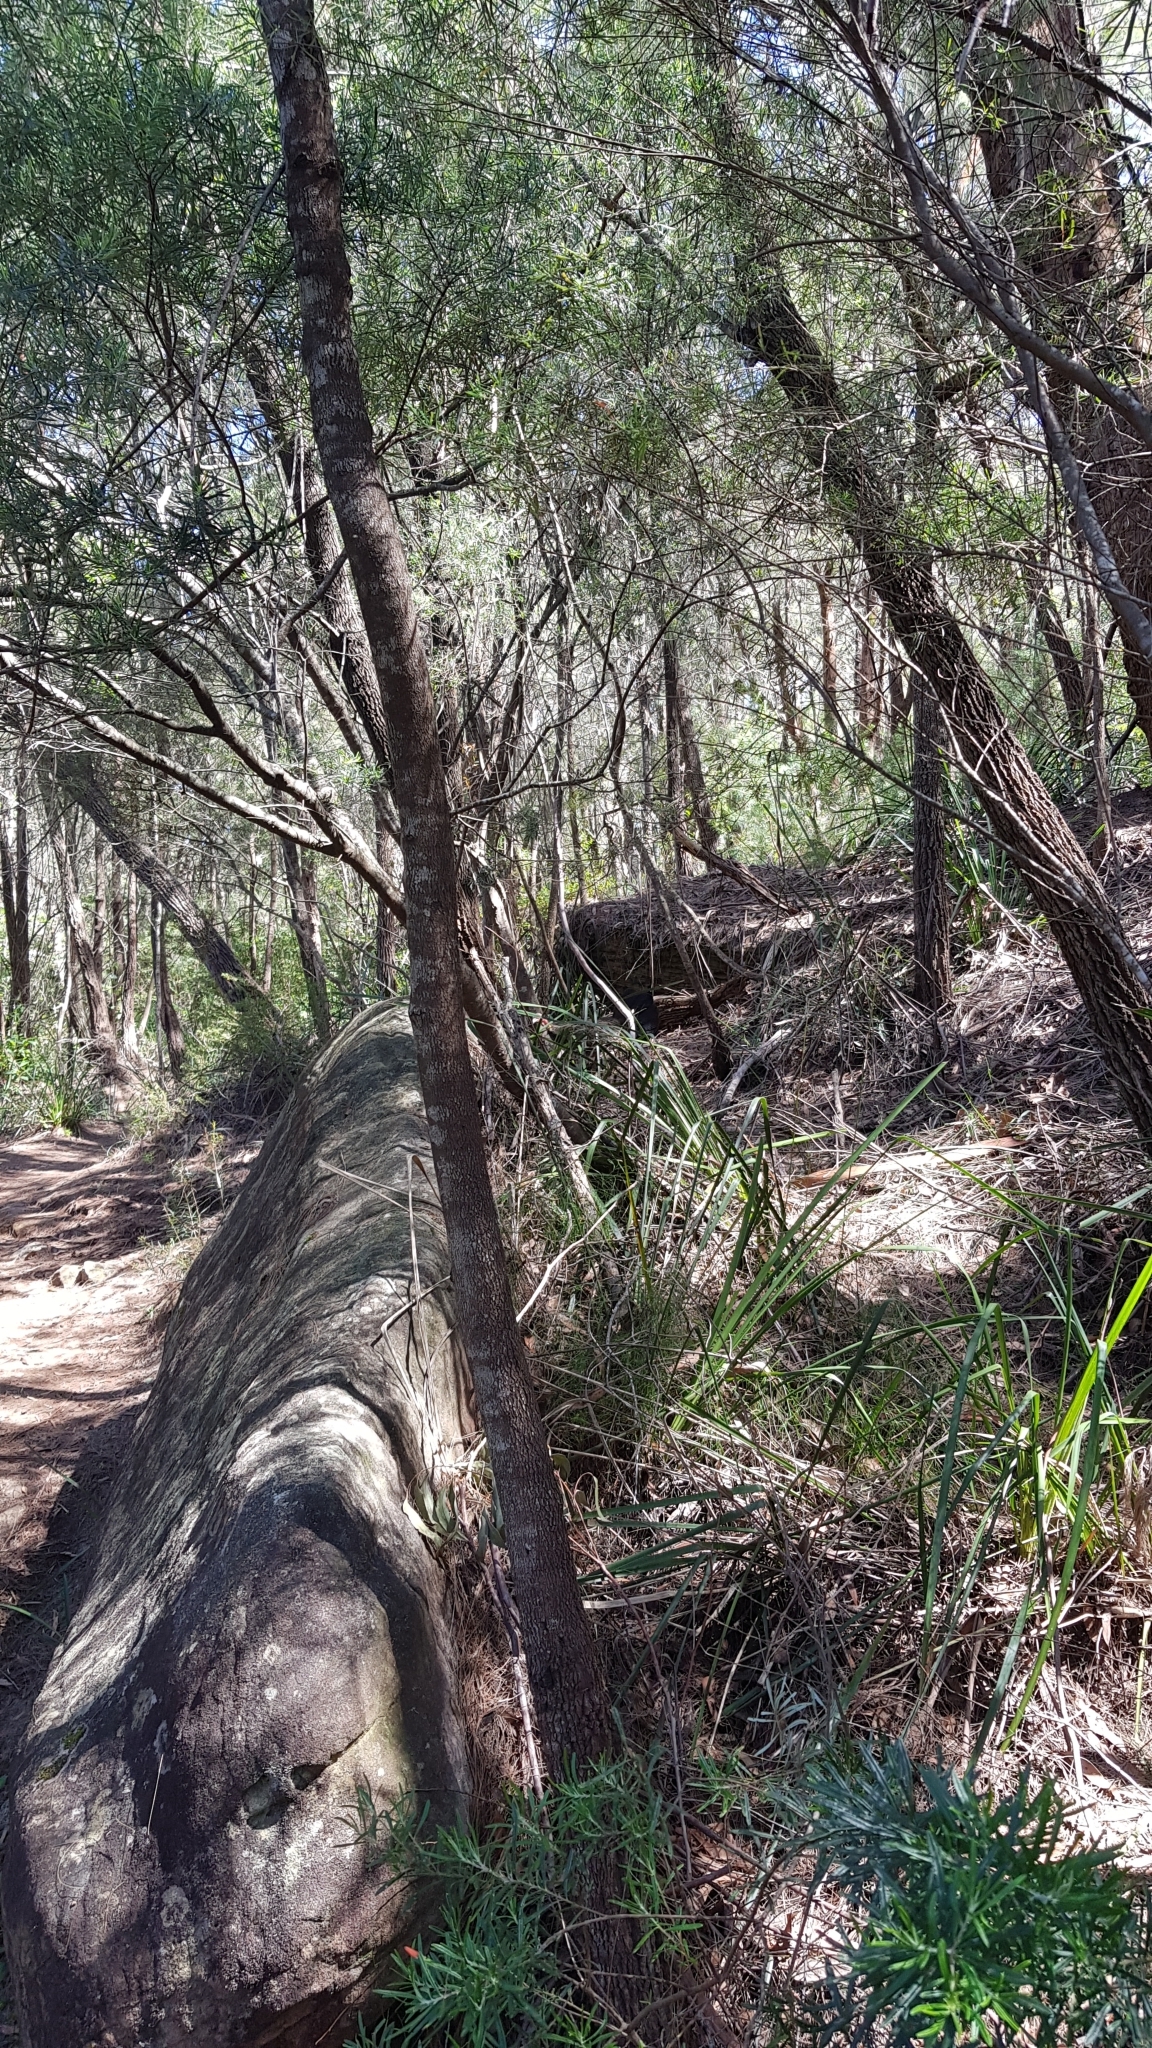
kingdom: Animalia
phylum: Chordata
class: Aves
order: Galliformes
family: Megapodiidae
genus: Alectura
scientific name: Alectura lathami
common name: Australian brushturkey
